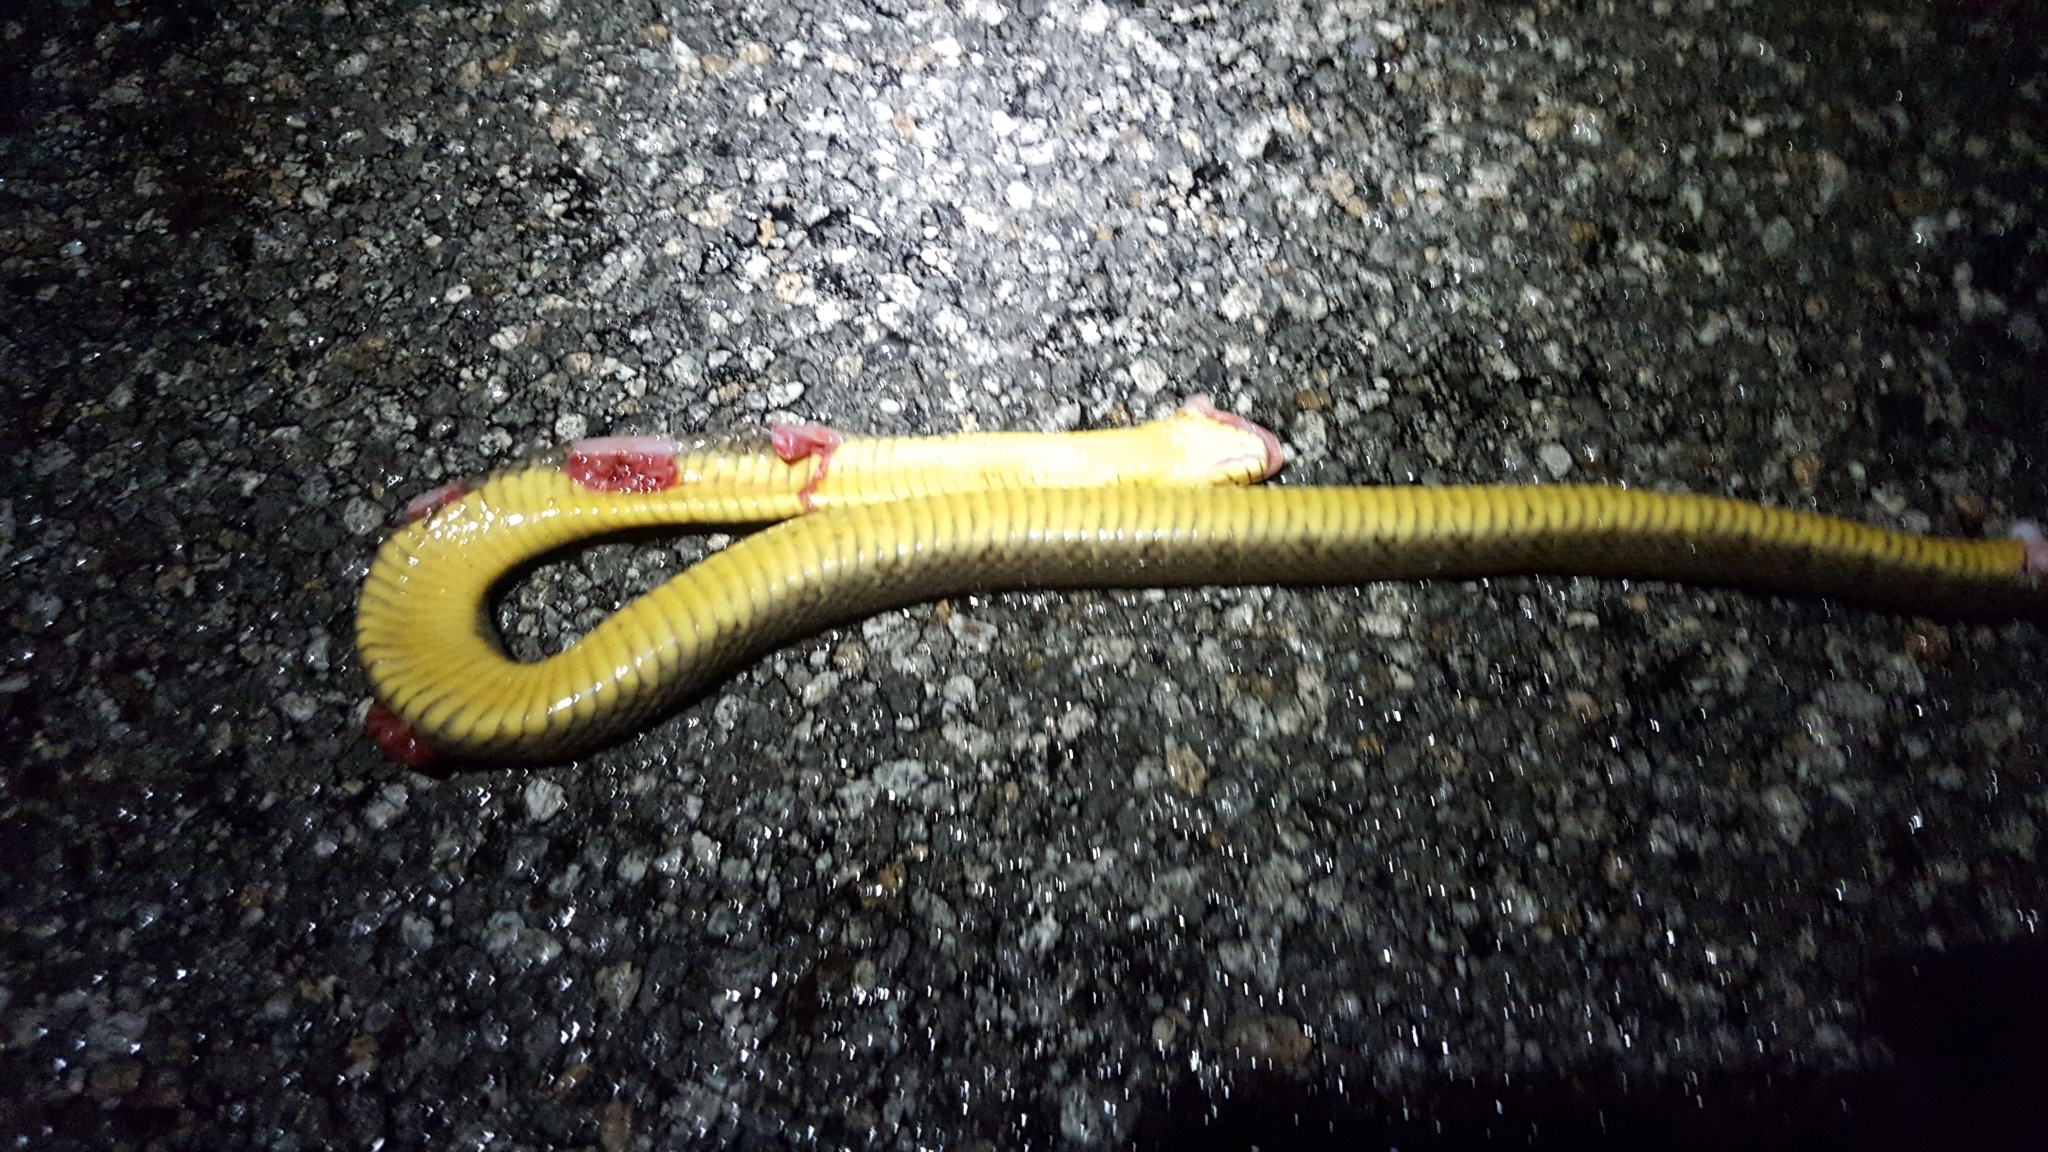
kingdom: Animalia
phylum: Chordata
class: Squamata
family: Colubridae
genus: Nerodia
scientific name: Nerodia erythrogaster
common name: Plainbelly water snake
